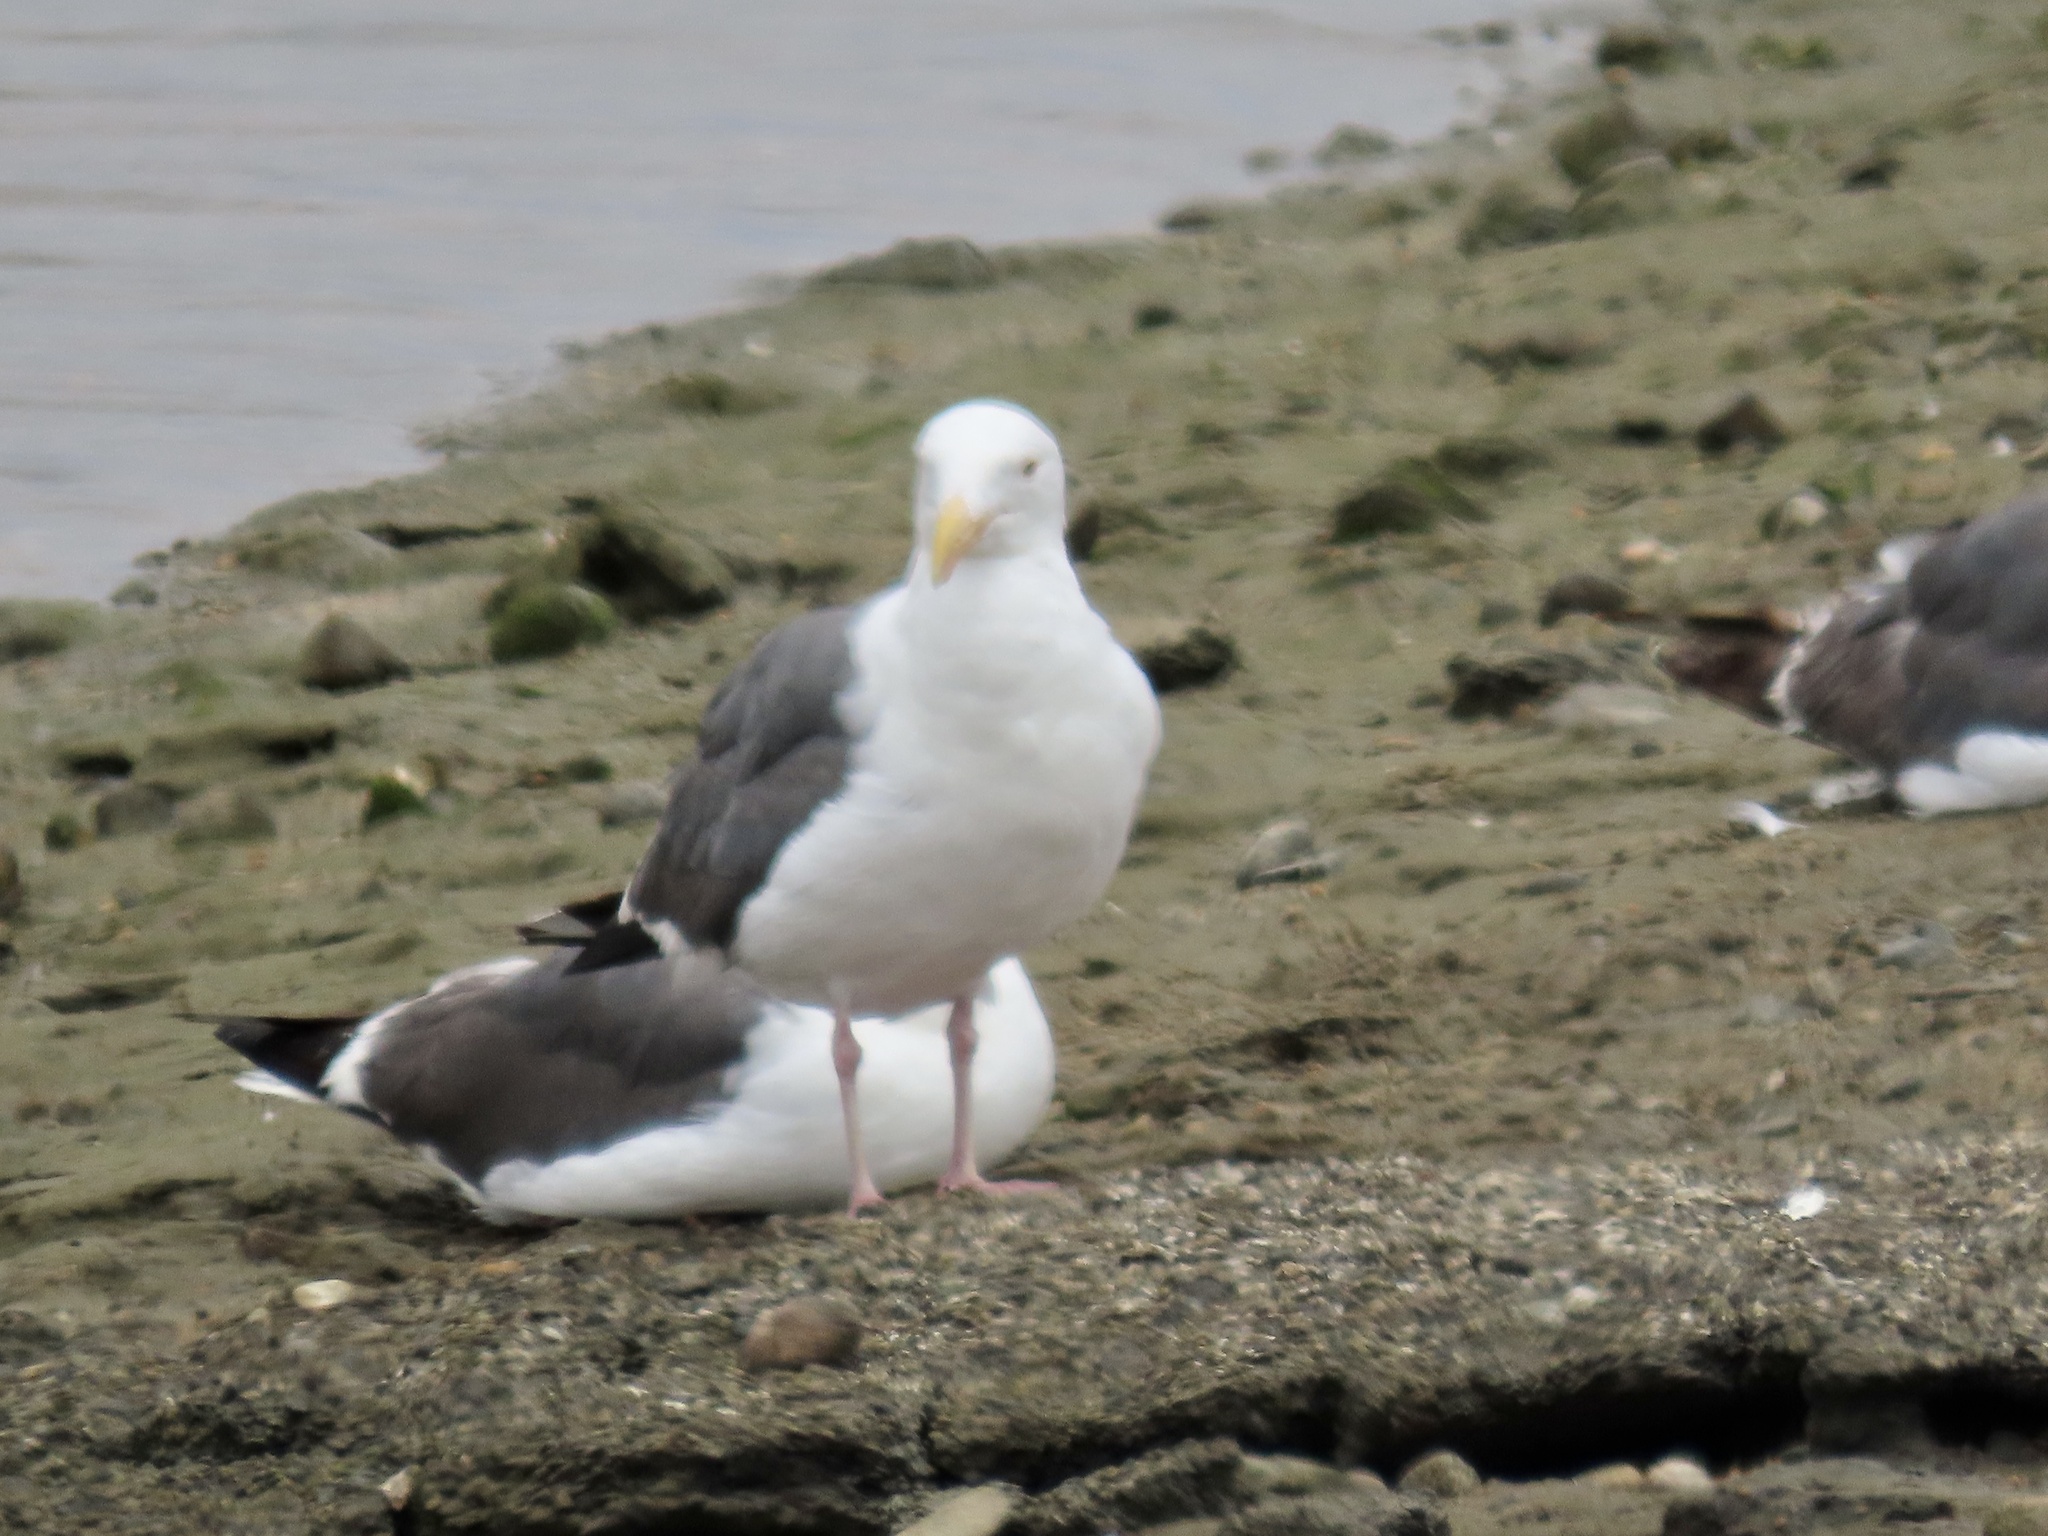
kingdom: Animalia
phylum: Chordata
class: Aves
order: Charadriiformes
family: Laridae
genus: Larus
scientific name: Larus occidentalis
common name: Western gull
